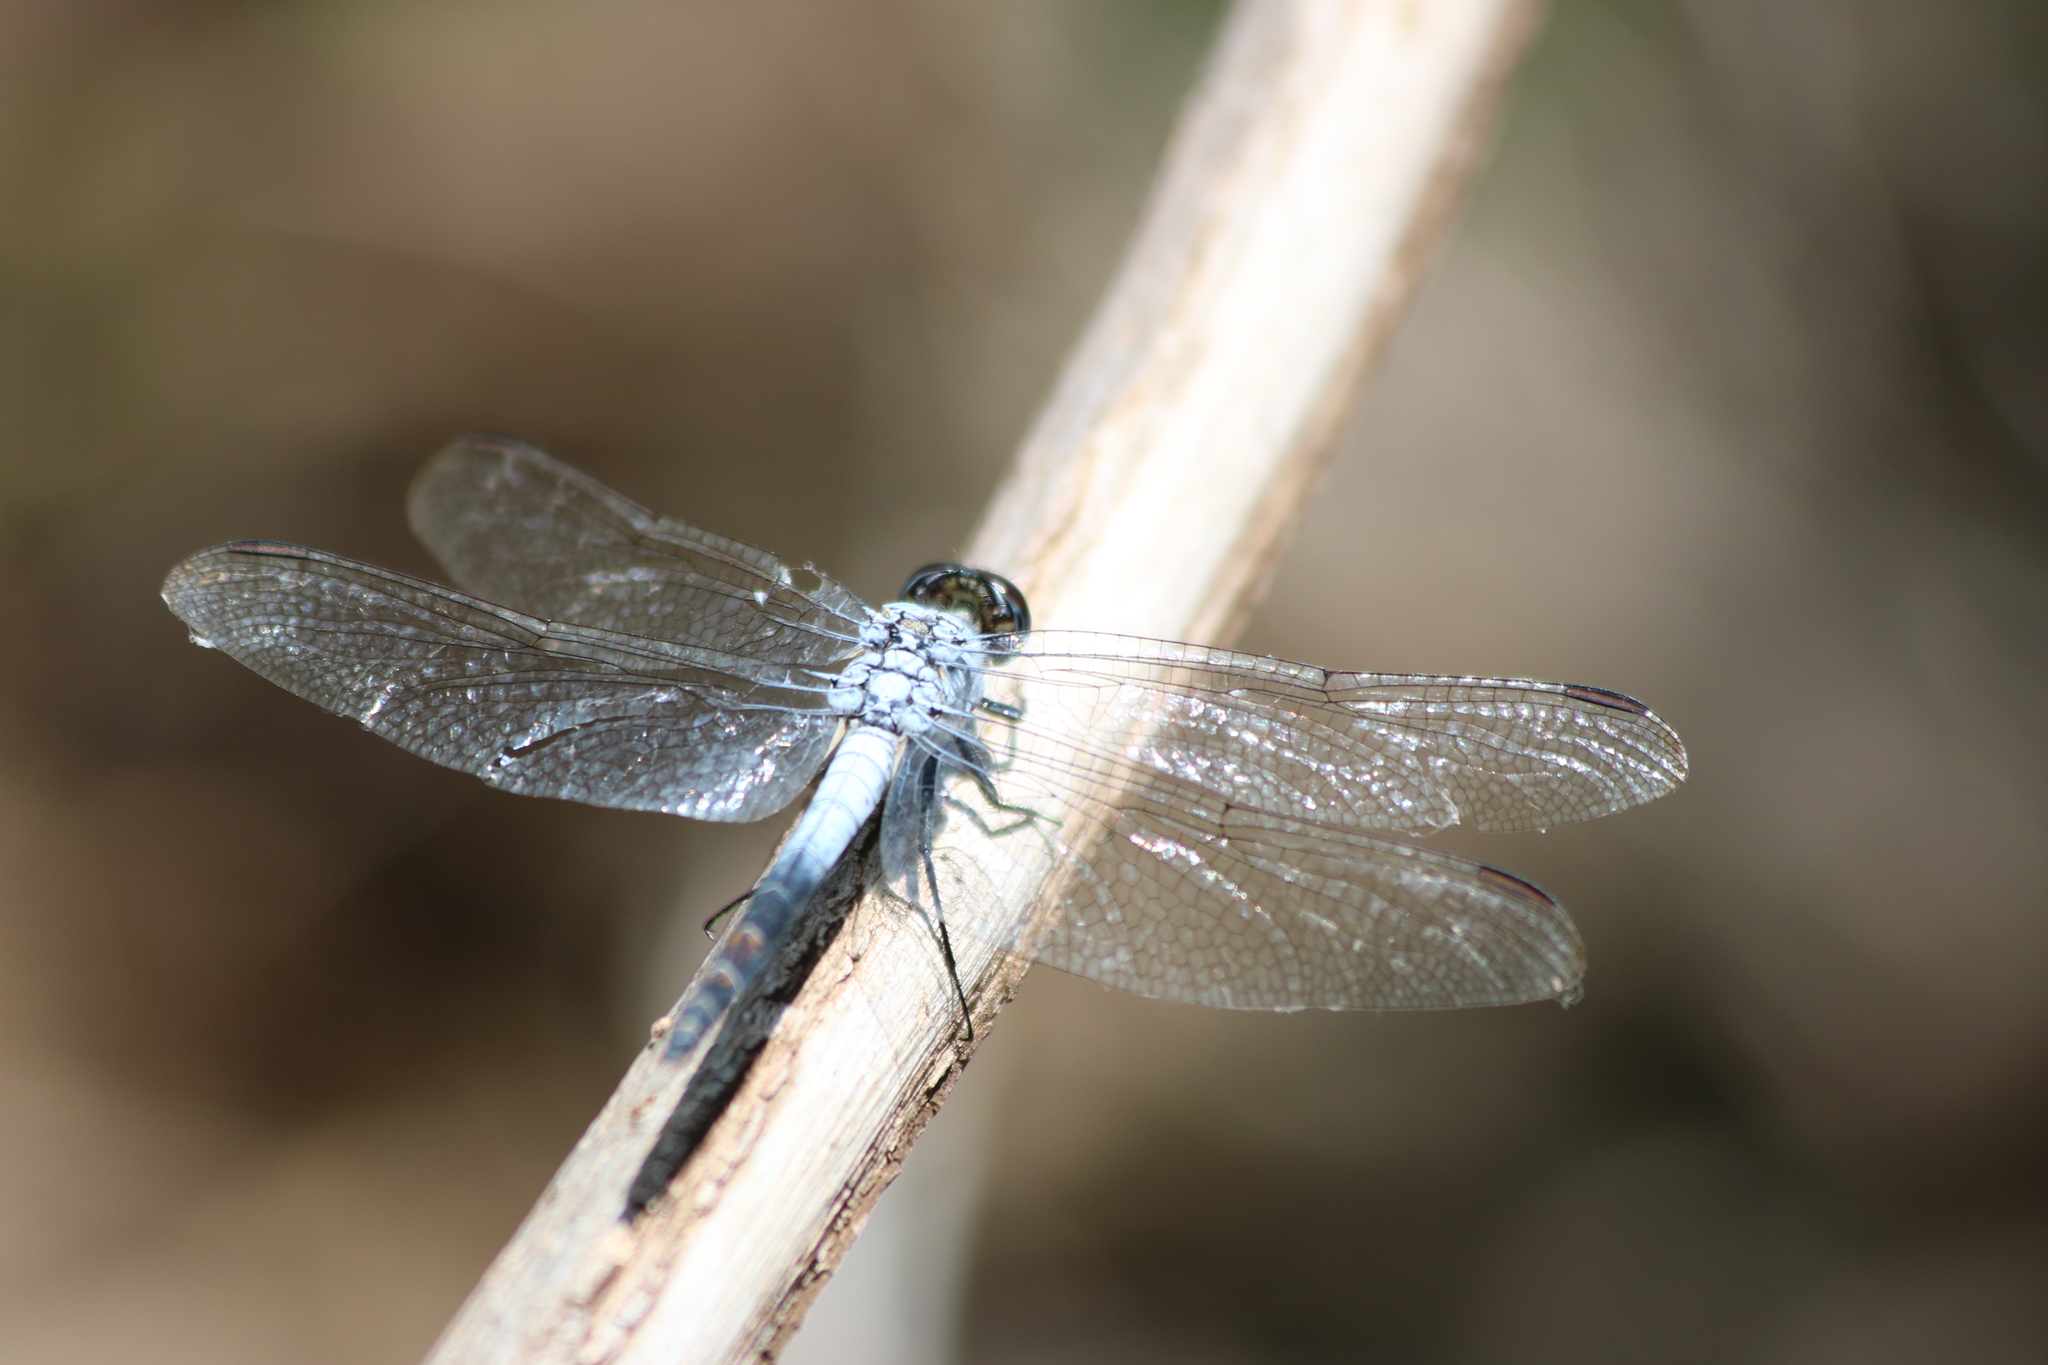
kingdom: Animalia
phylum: Arthropoda
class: Insecta
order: Odonata
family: Libellulidae
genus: Nesciothemis
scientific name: Nesciothemis farinosa
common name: Eastern blacktail
